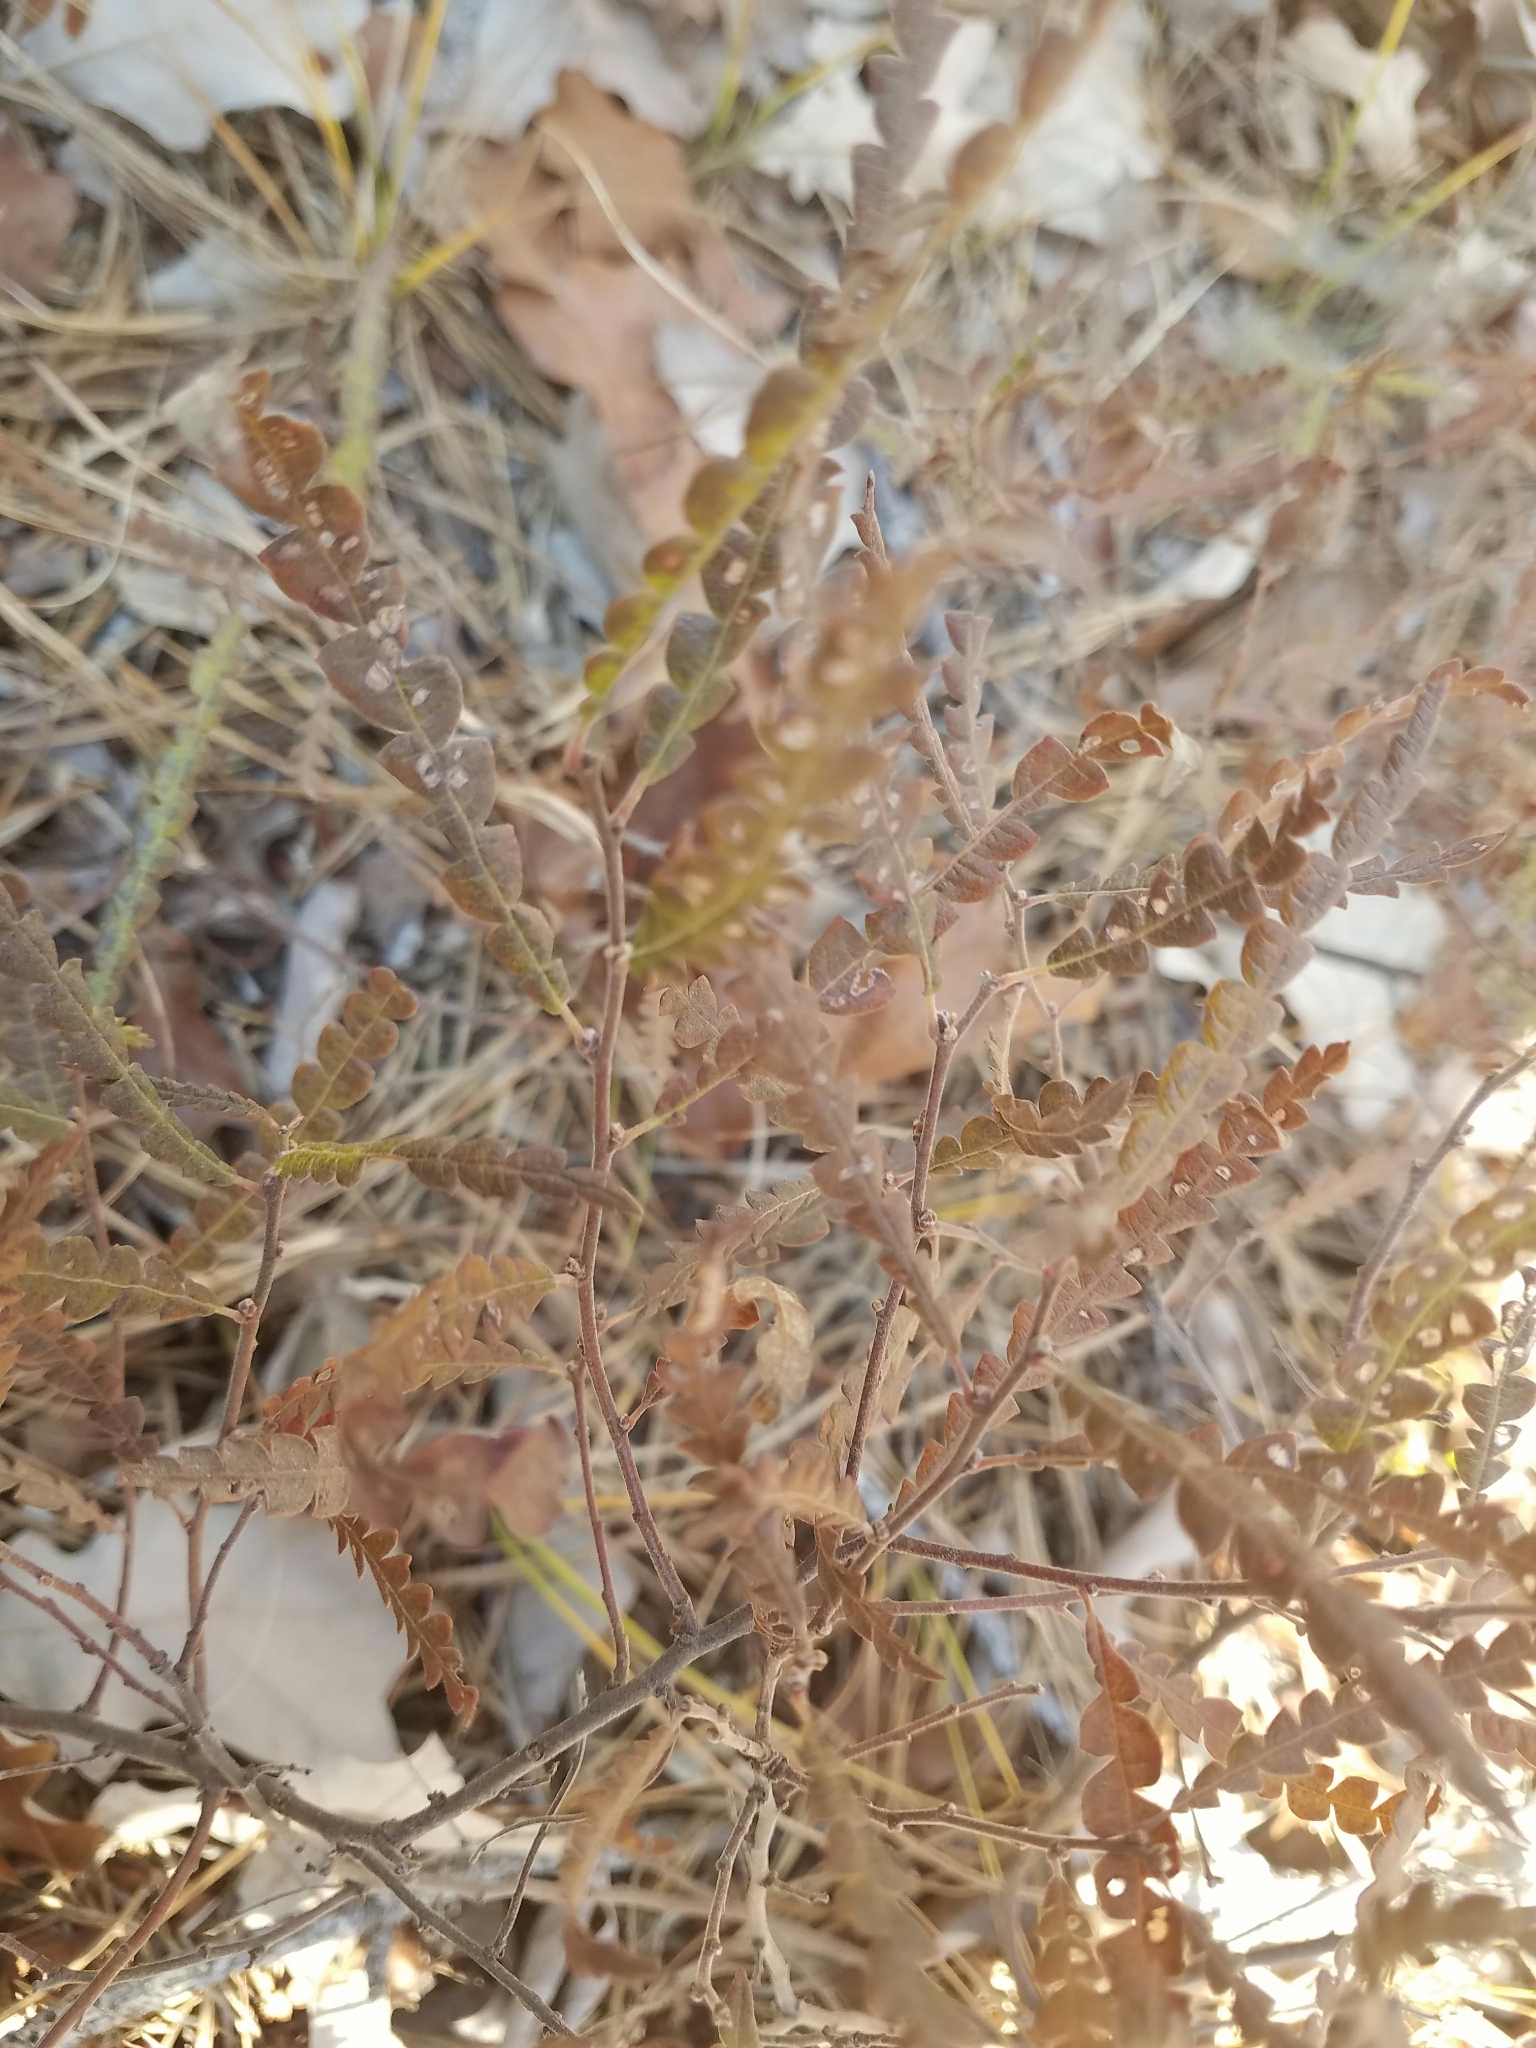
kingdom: Plantae
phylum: Tracheophyta
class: Magnoliopsida
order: Fagales
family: Myricaceae
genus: Comptonia
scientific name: Comptonia peregrina
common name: Sweet-fern
